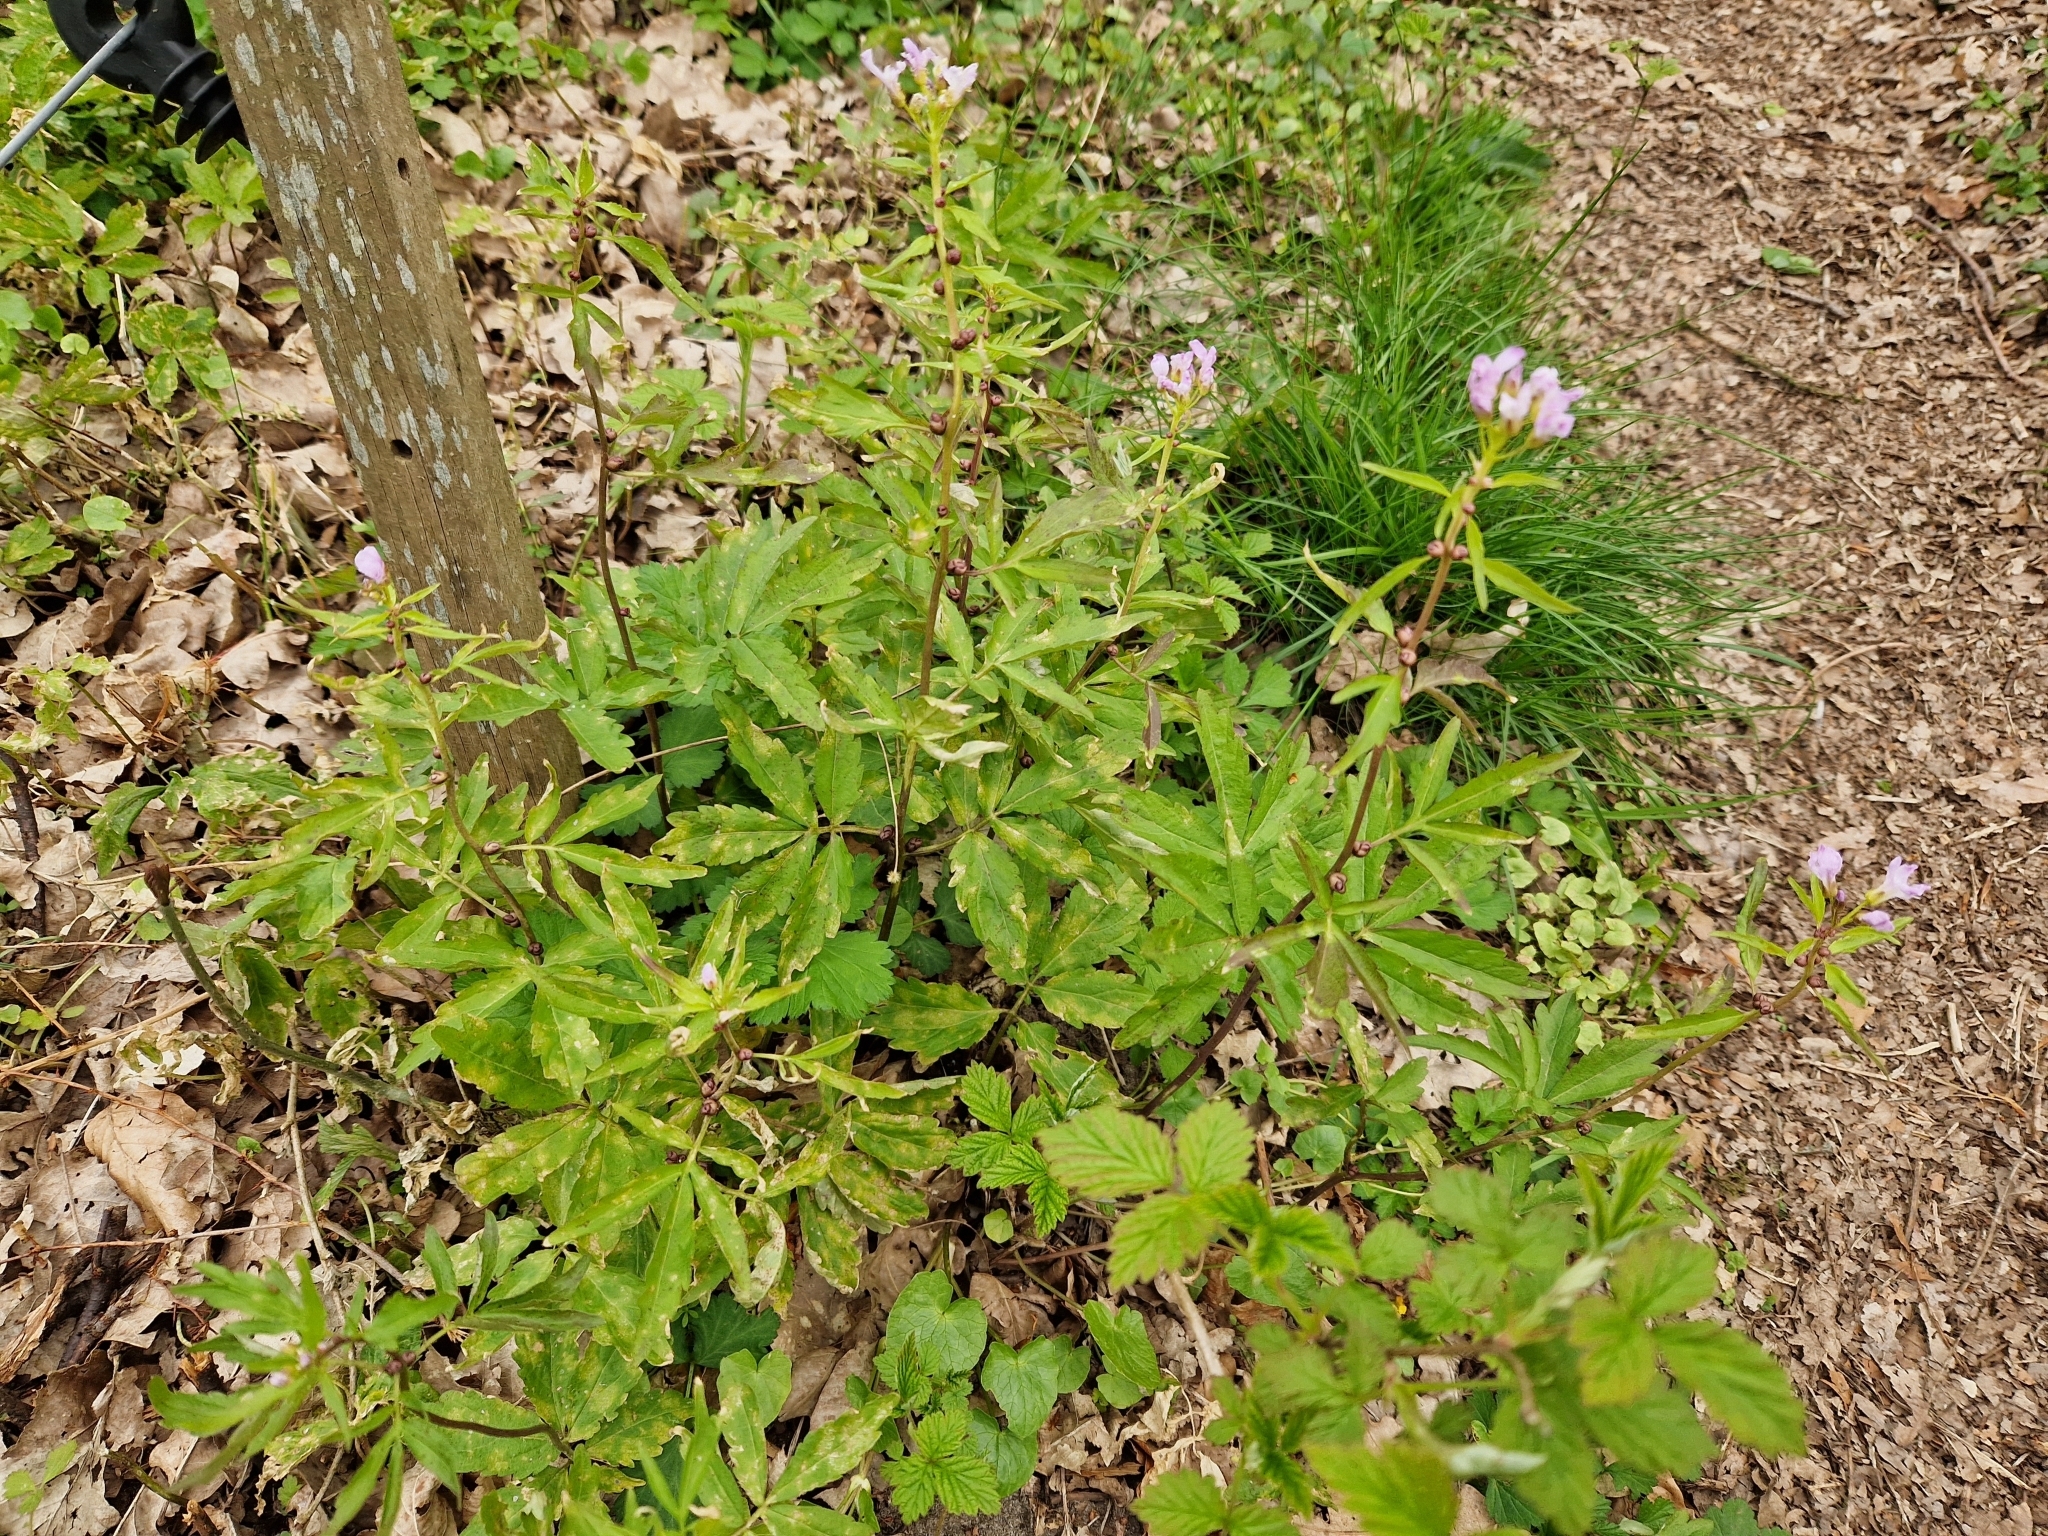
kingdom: Plantae
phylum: Tracheophyta
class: Magnoliopsida
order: Brassicales
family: Brassicaceae
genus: Cardamine
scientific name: Cardamine bulbifera
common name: Coralroot bittercress
